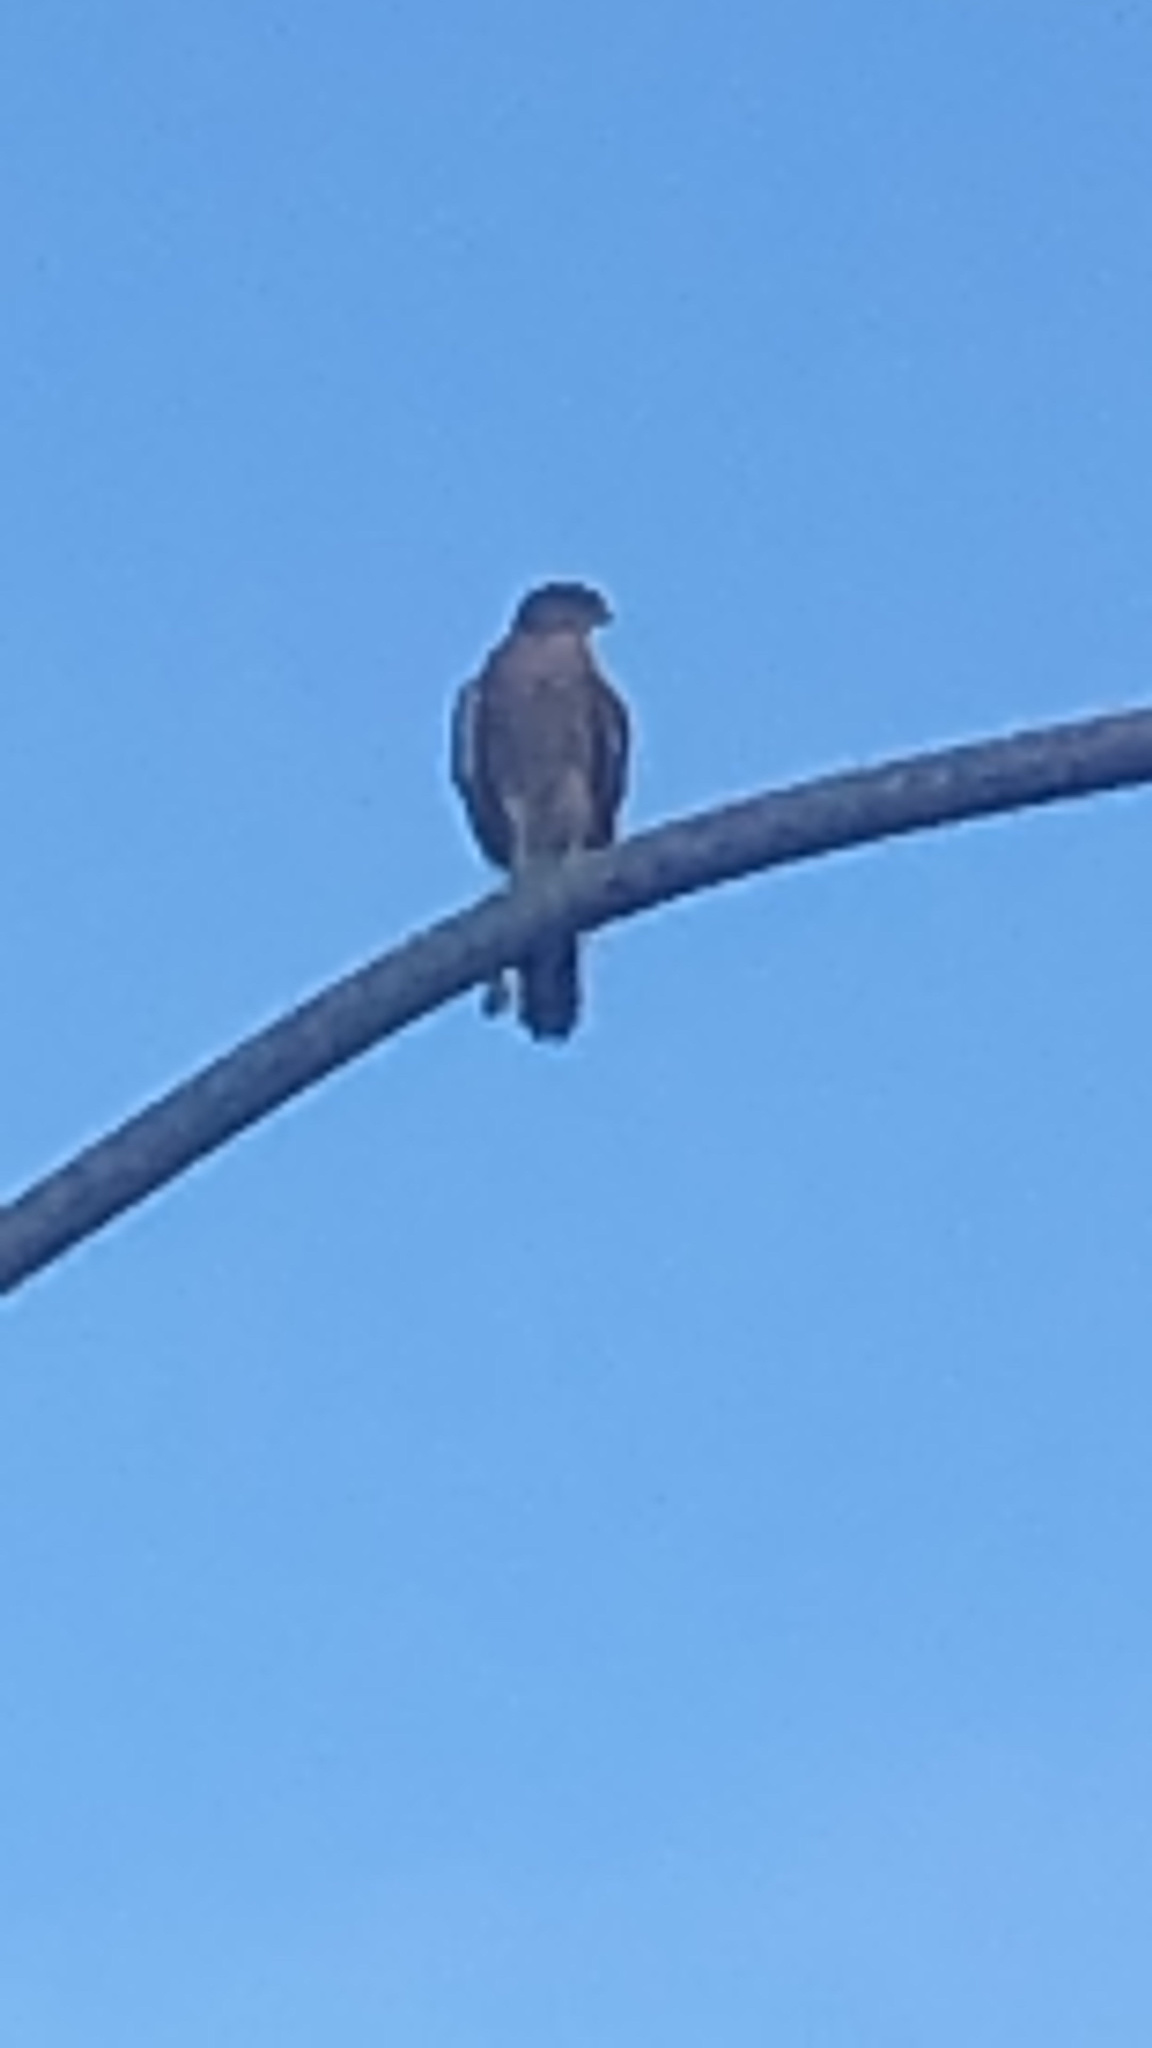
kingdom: Animalia
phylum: Chordata
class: Aves
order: Accipitriformes
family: Accipitridae
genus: Accipiter
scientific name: Accipiter cooperii
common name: Cooper's hawk
